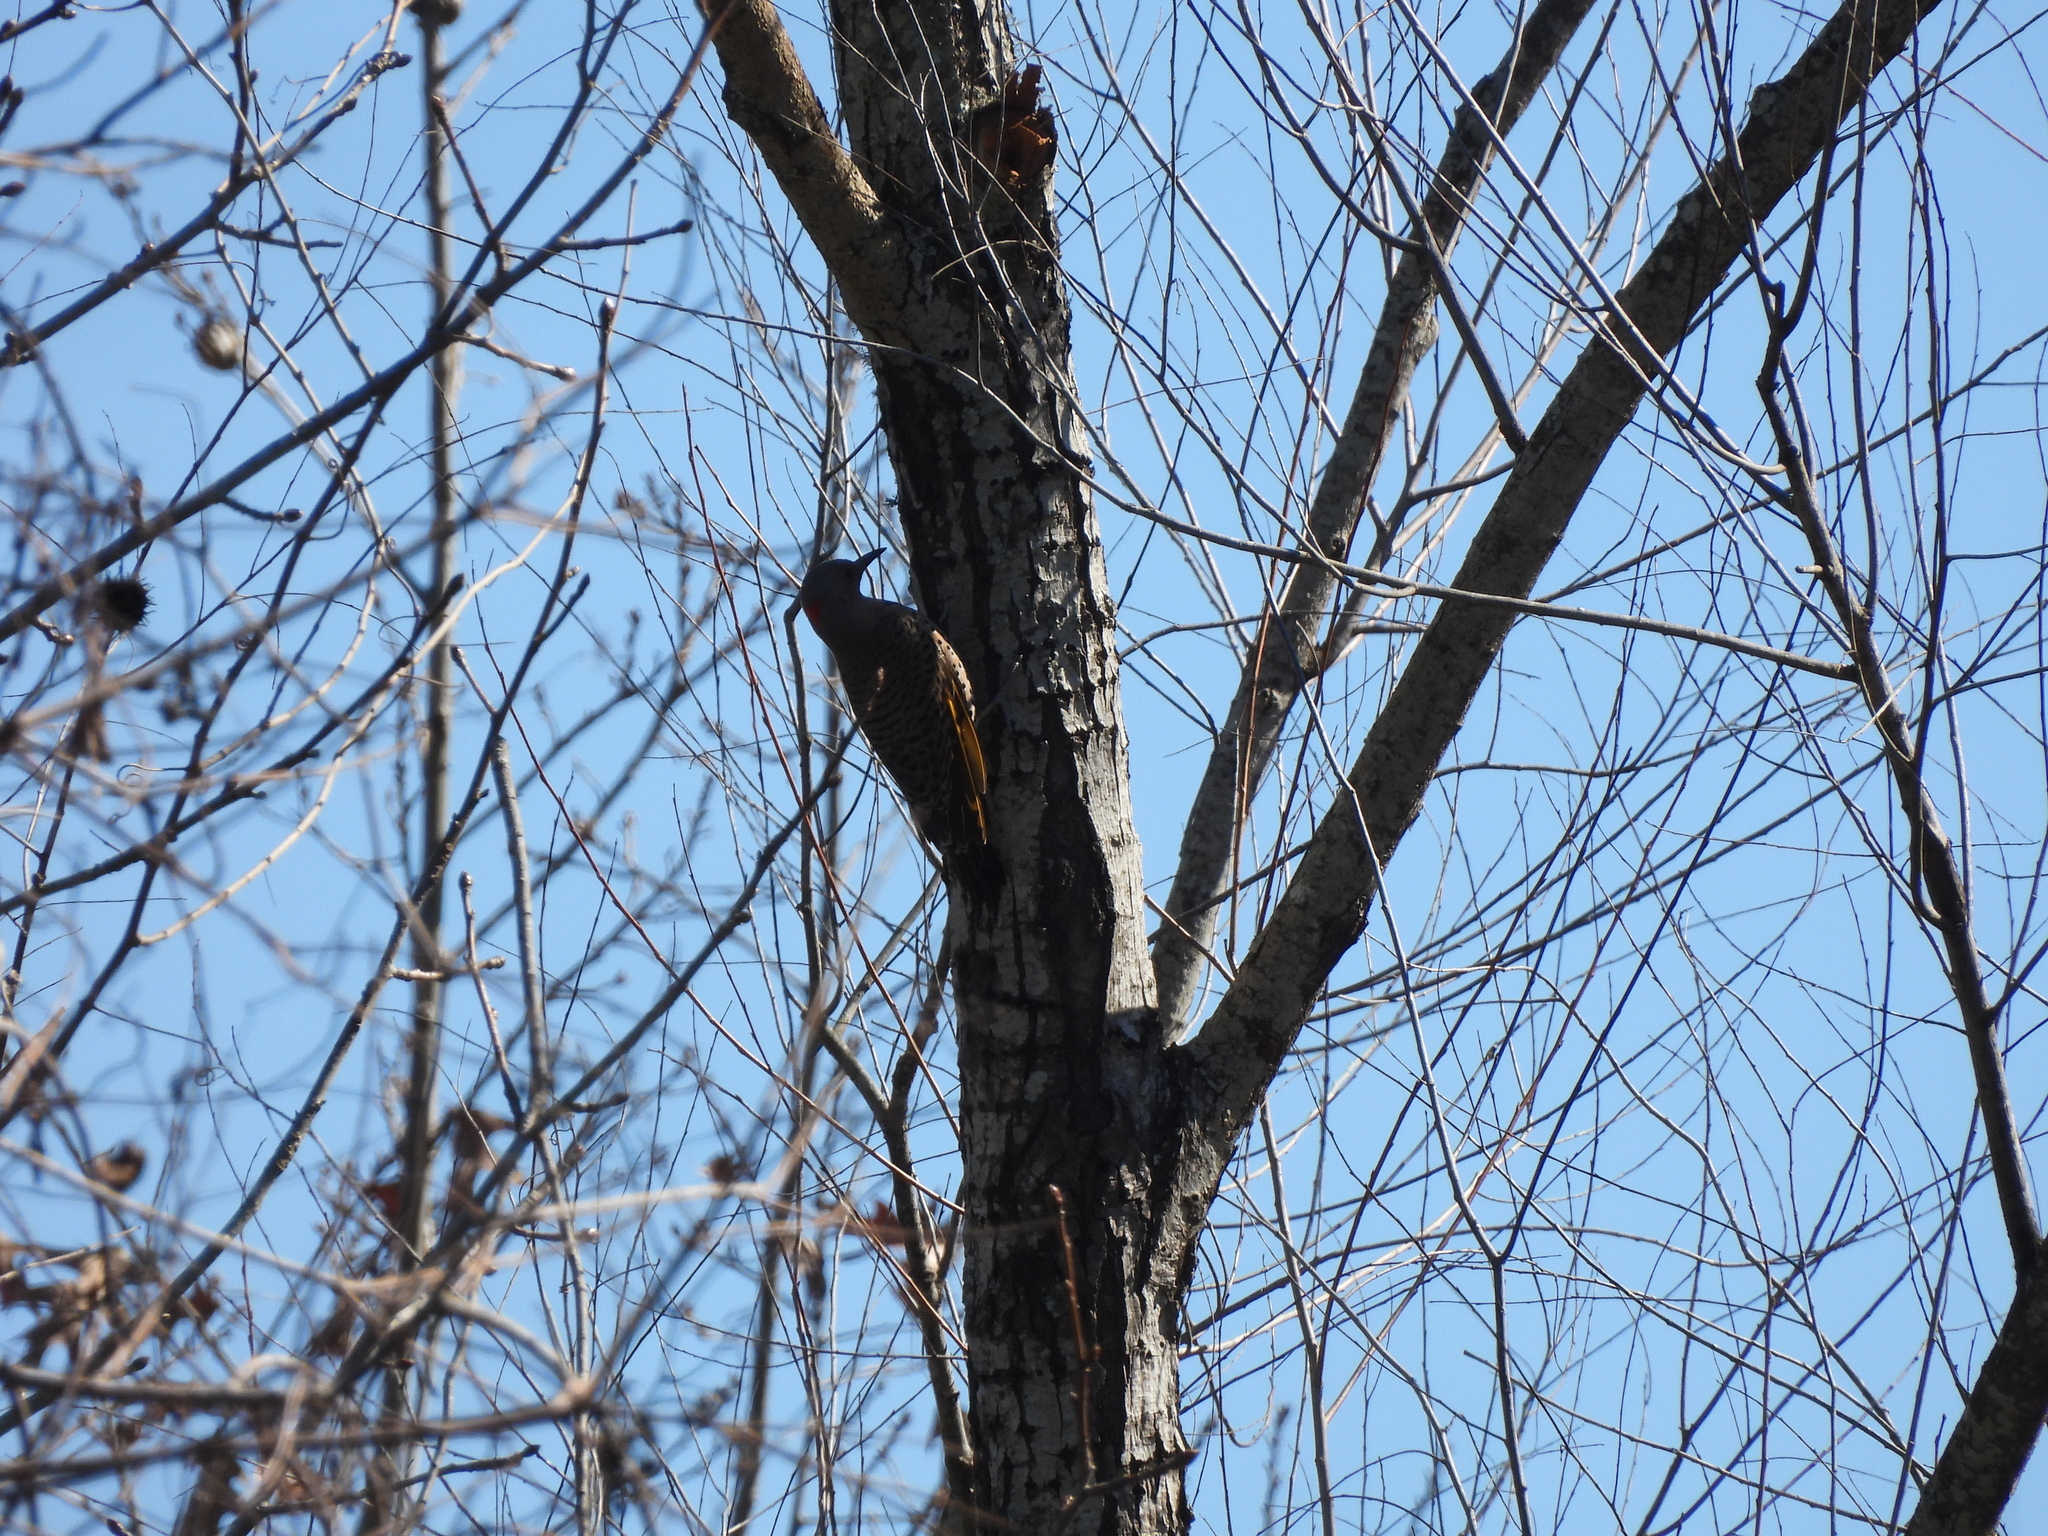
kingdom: Animalia
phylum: Chordata
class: Aves
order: Piciformes
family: Picidae
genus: Colaptes
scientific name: Colaptes auratus
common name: Northern flicker
